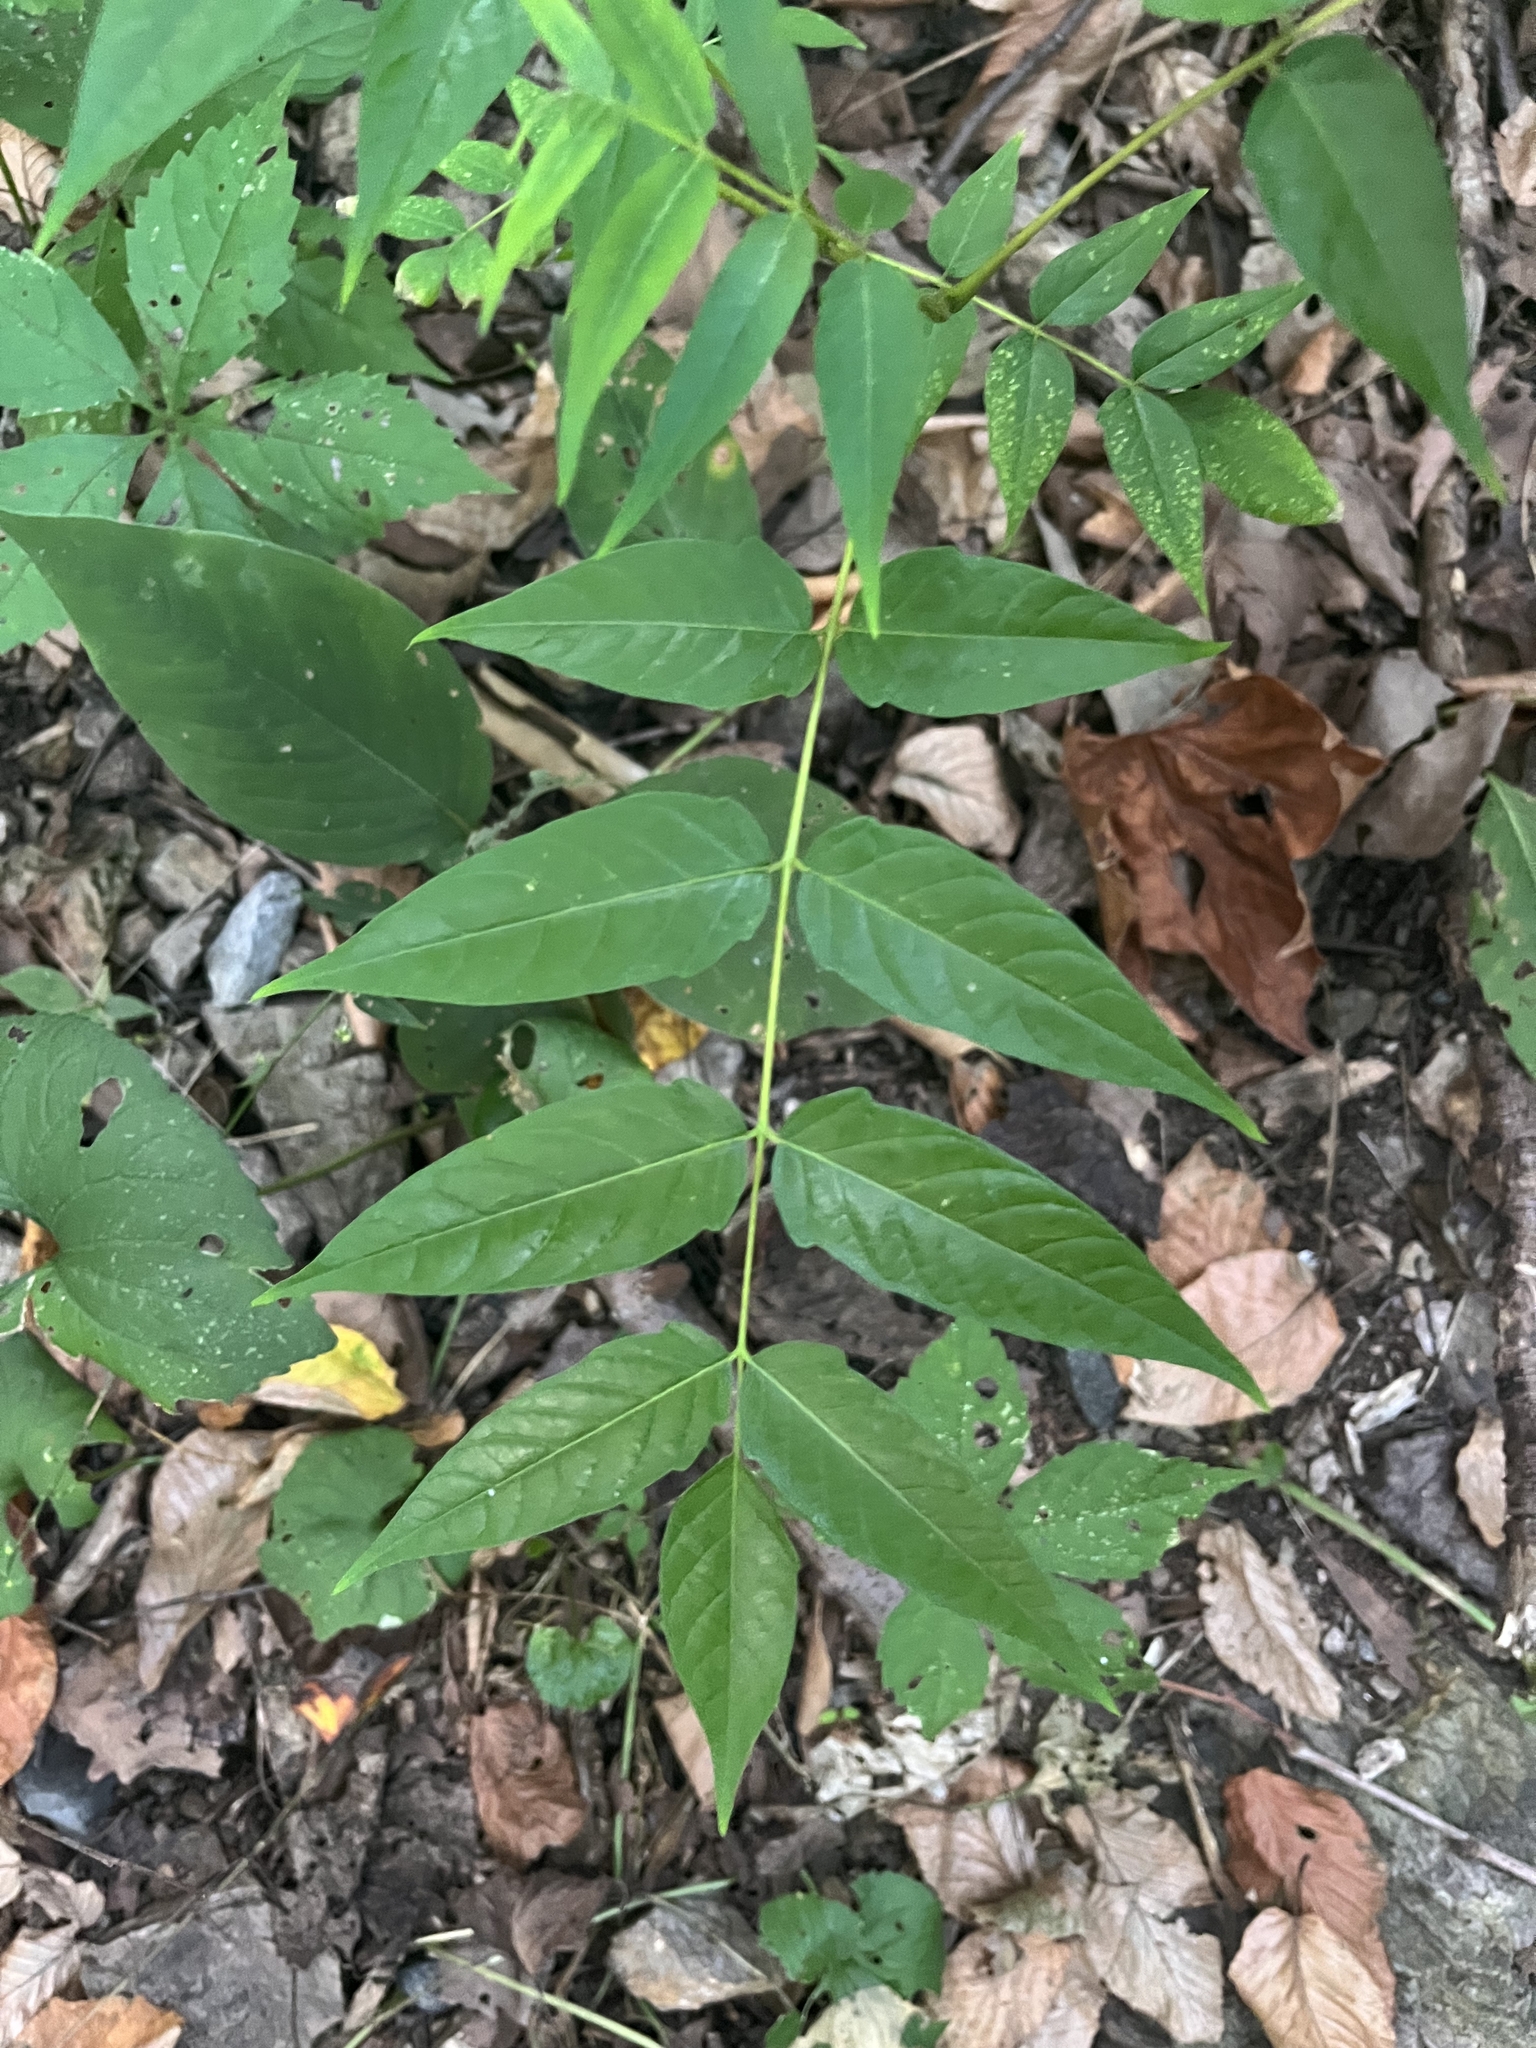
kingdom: Plantae
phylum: Tracheophyta
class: Magnoliopsida
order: Sapindales
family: Simaroubaceae
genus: Ailanthus
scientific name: Ailanthus altissima
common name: Tree-of-heaven
